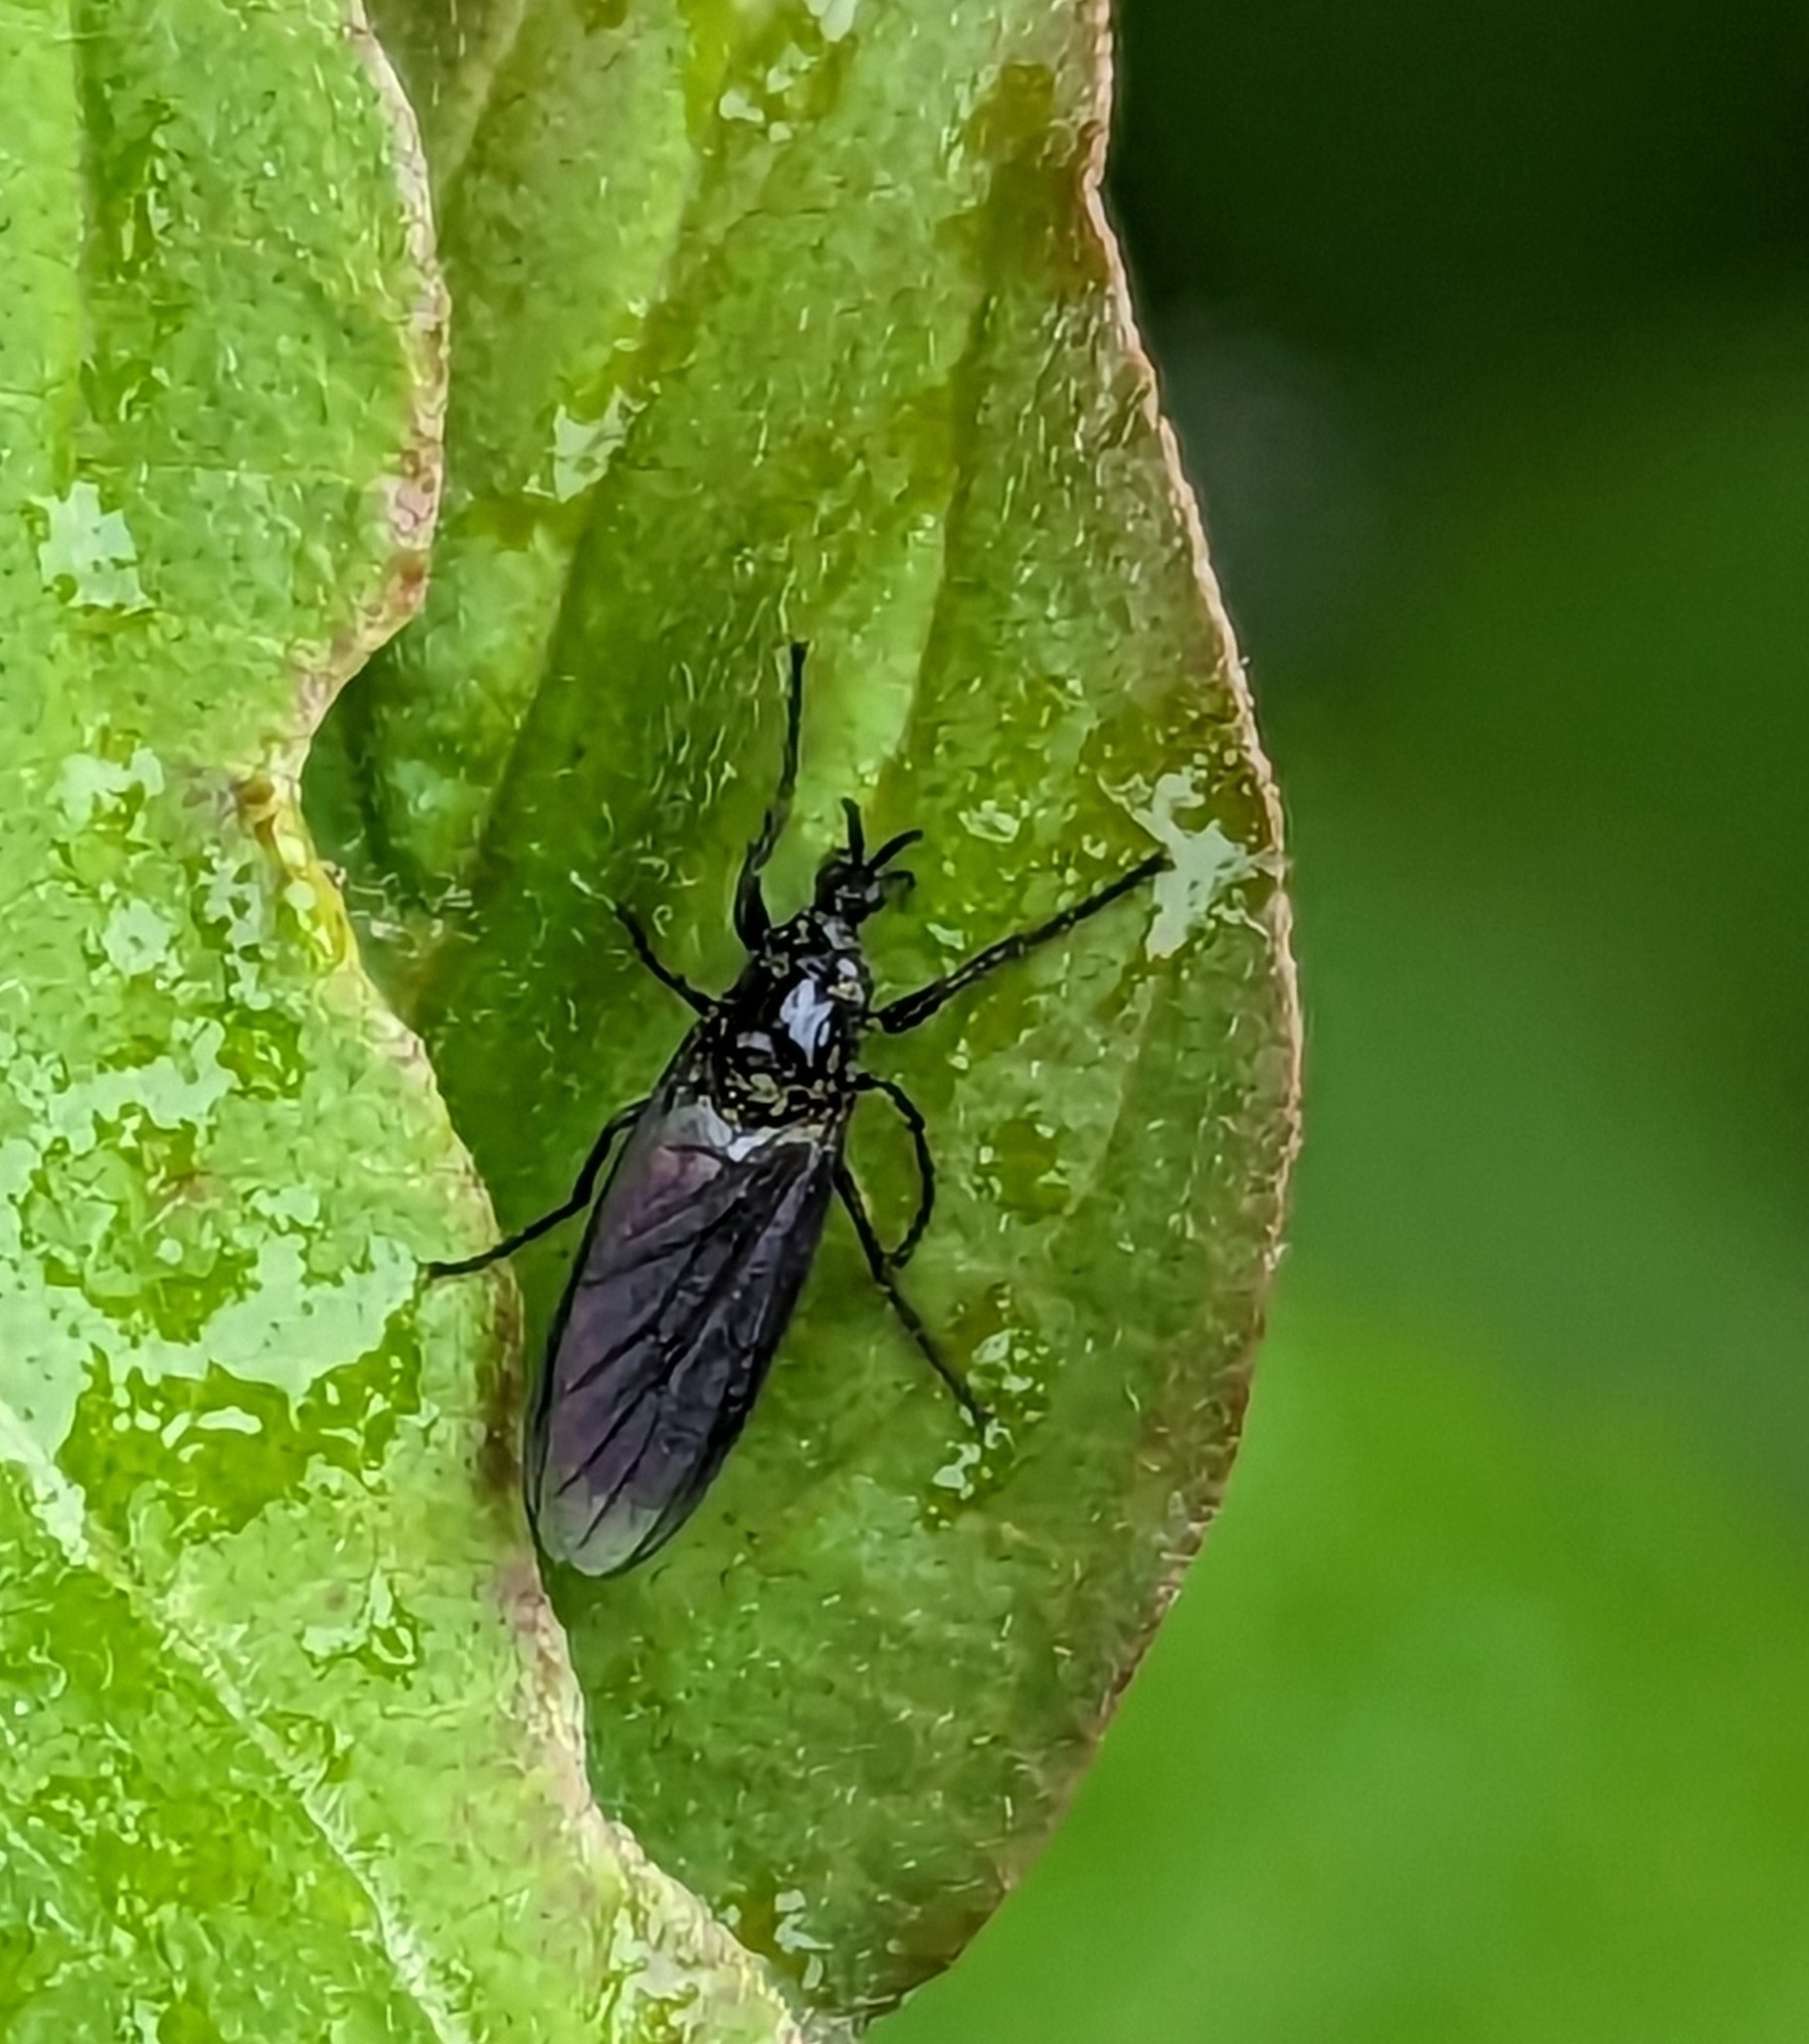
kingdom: Animalia
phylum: Arthropoda
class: Insecta
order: Diptera
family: Bibionidae
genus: Dilophus
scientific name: Dilophus febrilis
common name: Fever fly
